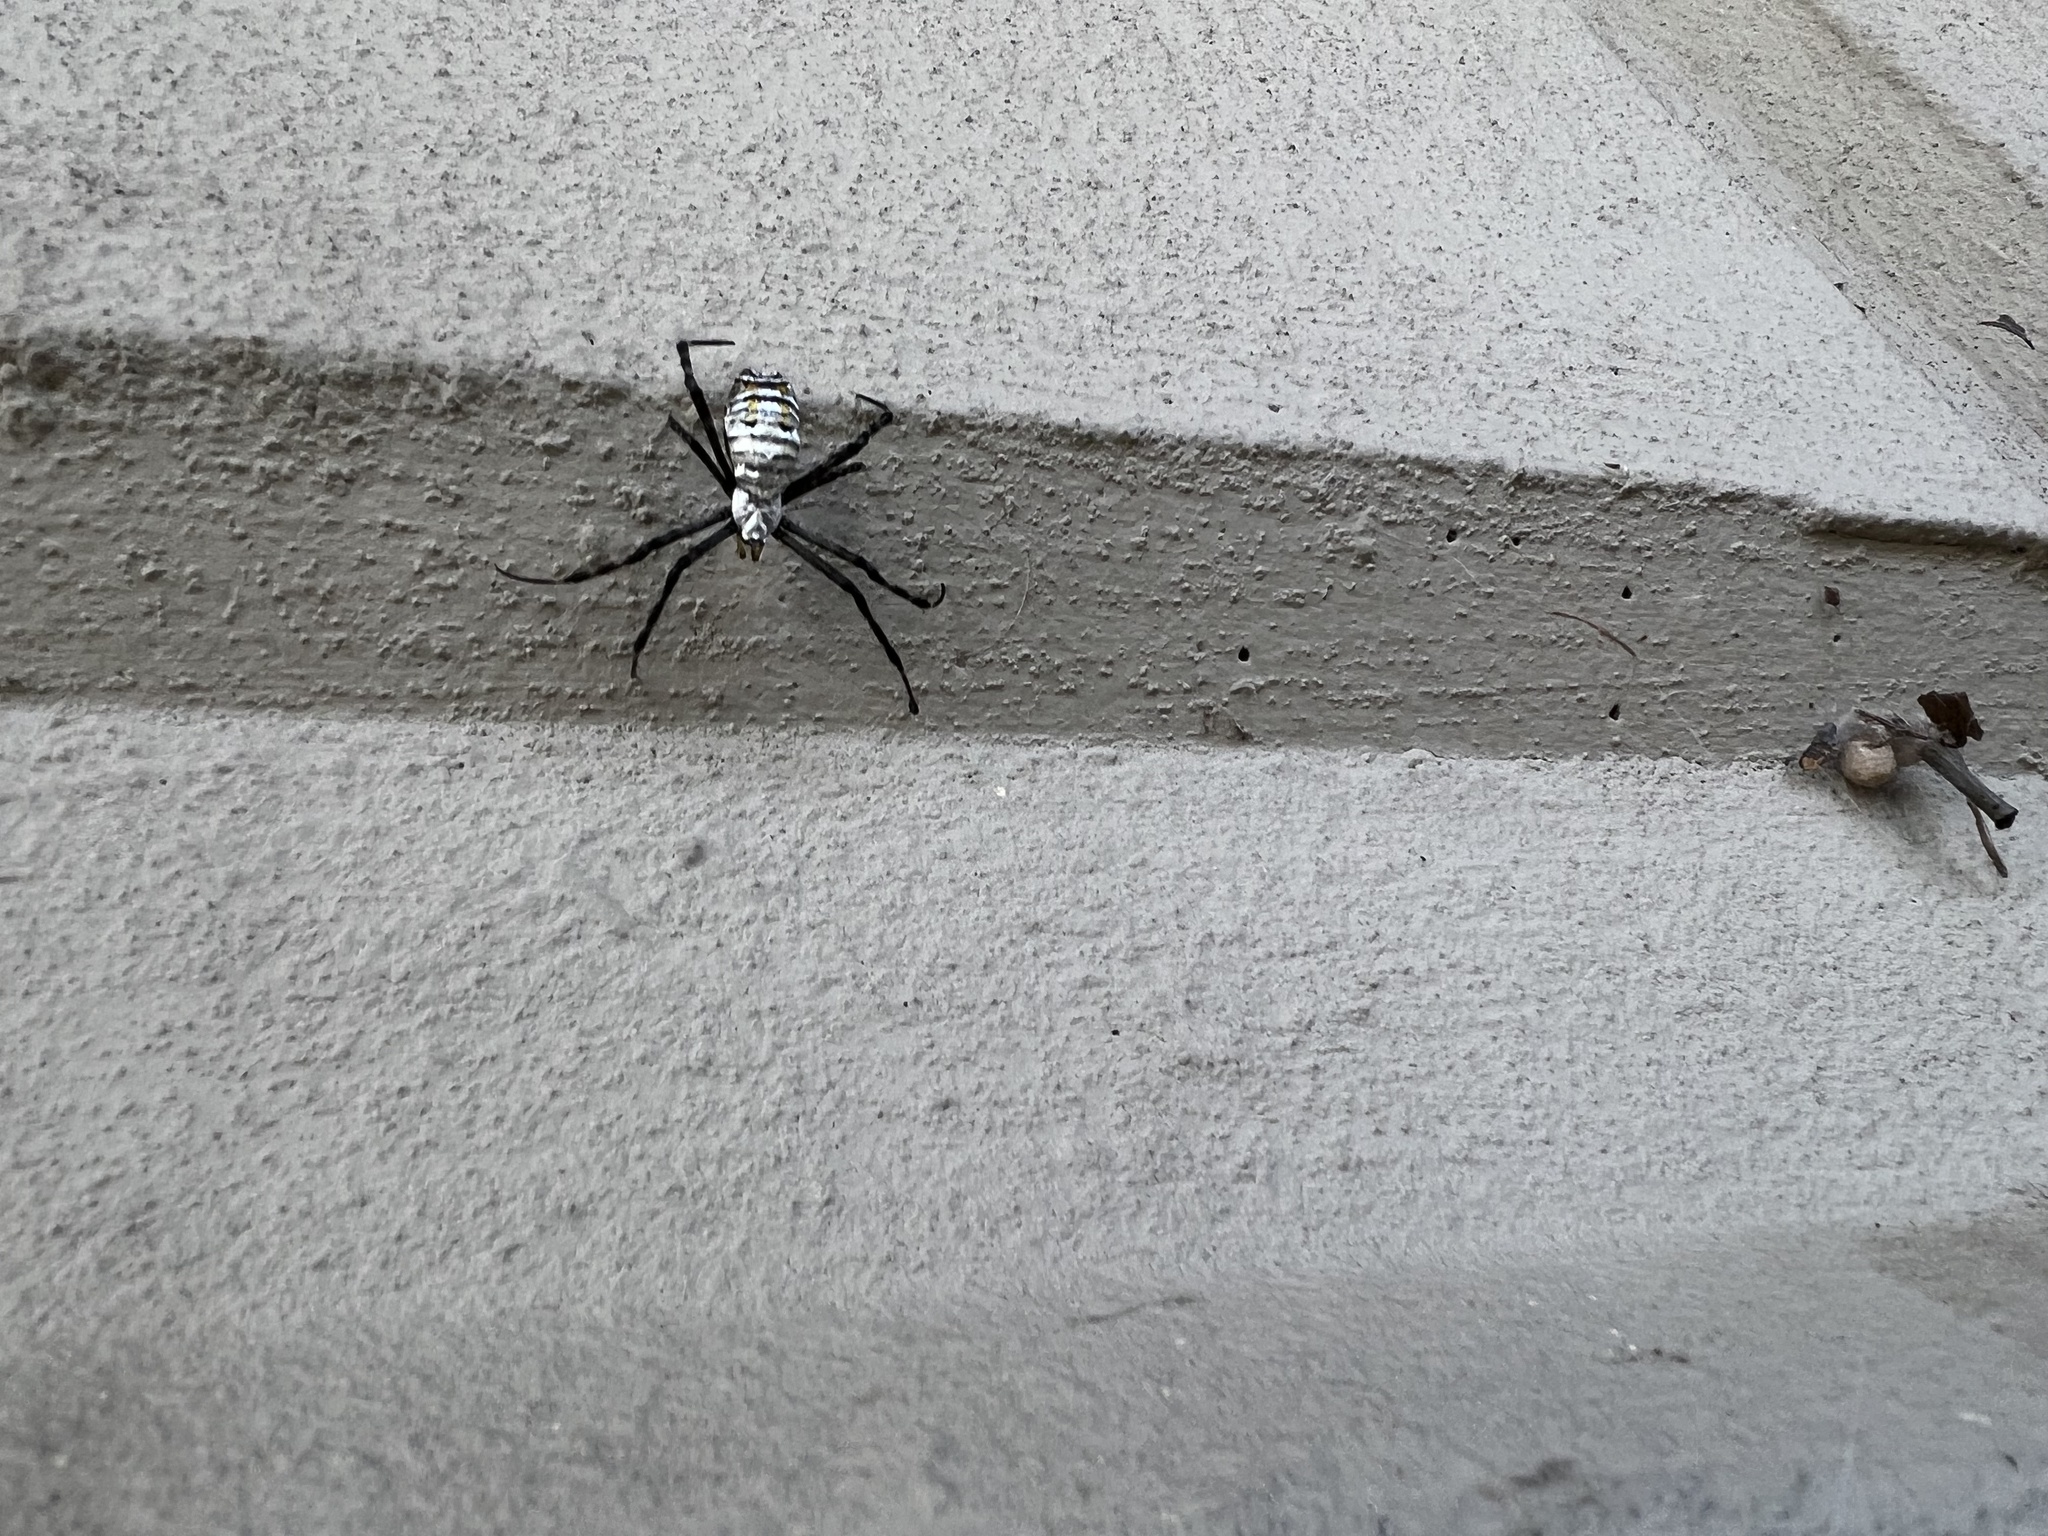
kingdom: Animalia
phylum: Arthropoda
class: Arachnida
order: Araneae
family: Araneidae
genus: Argiope
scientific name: Argiope trifasciata
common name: Banded garden spider
